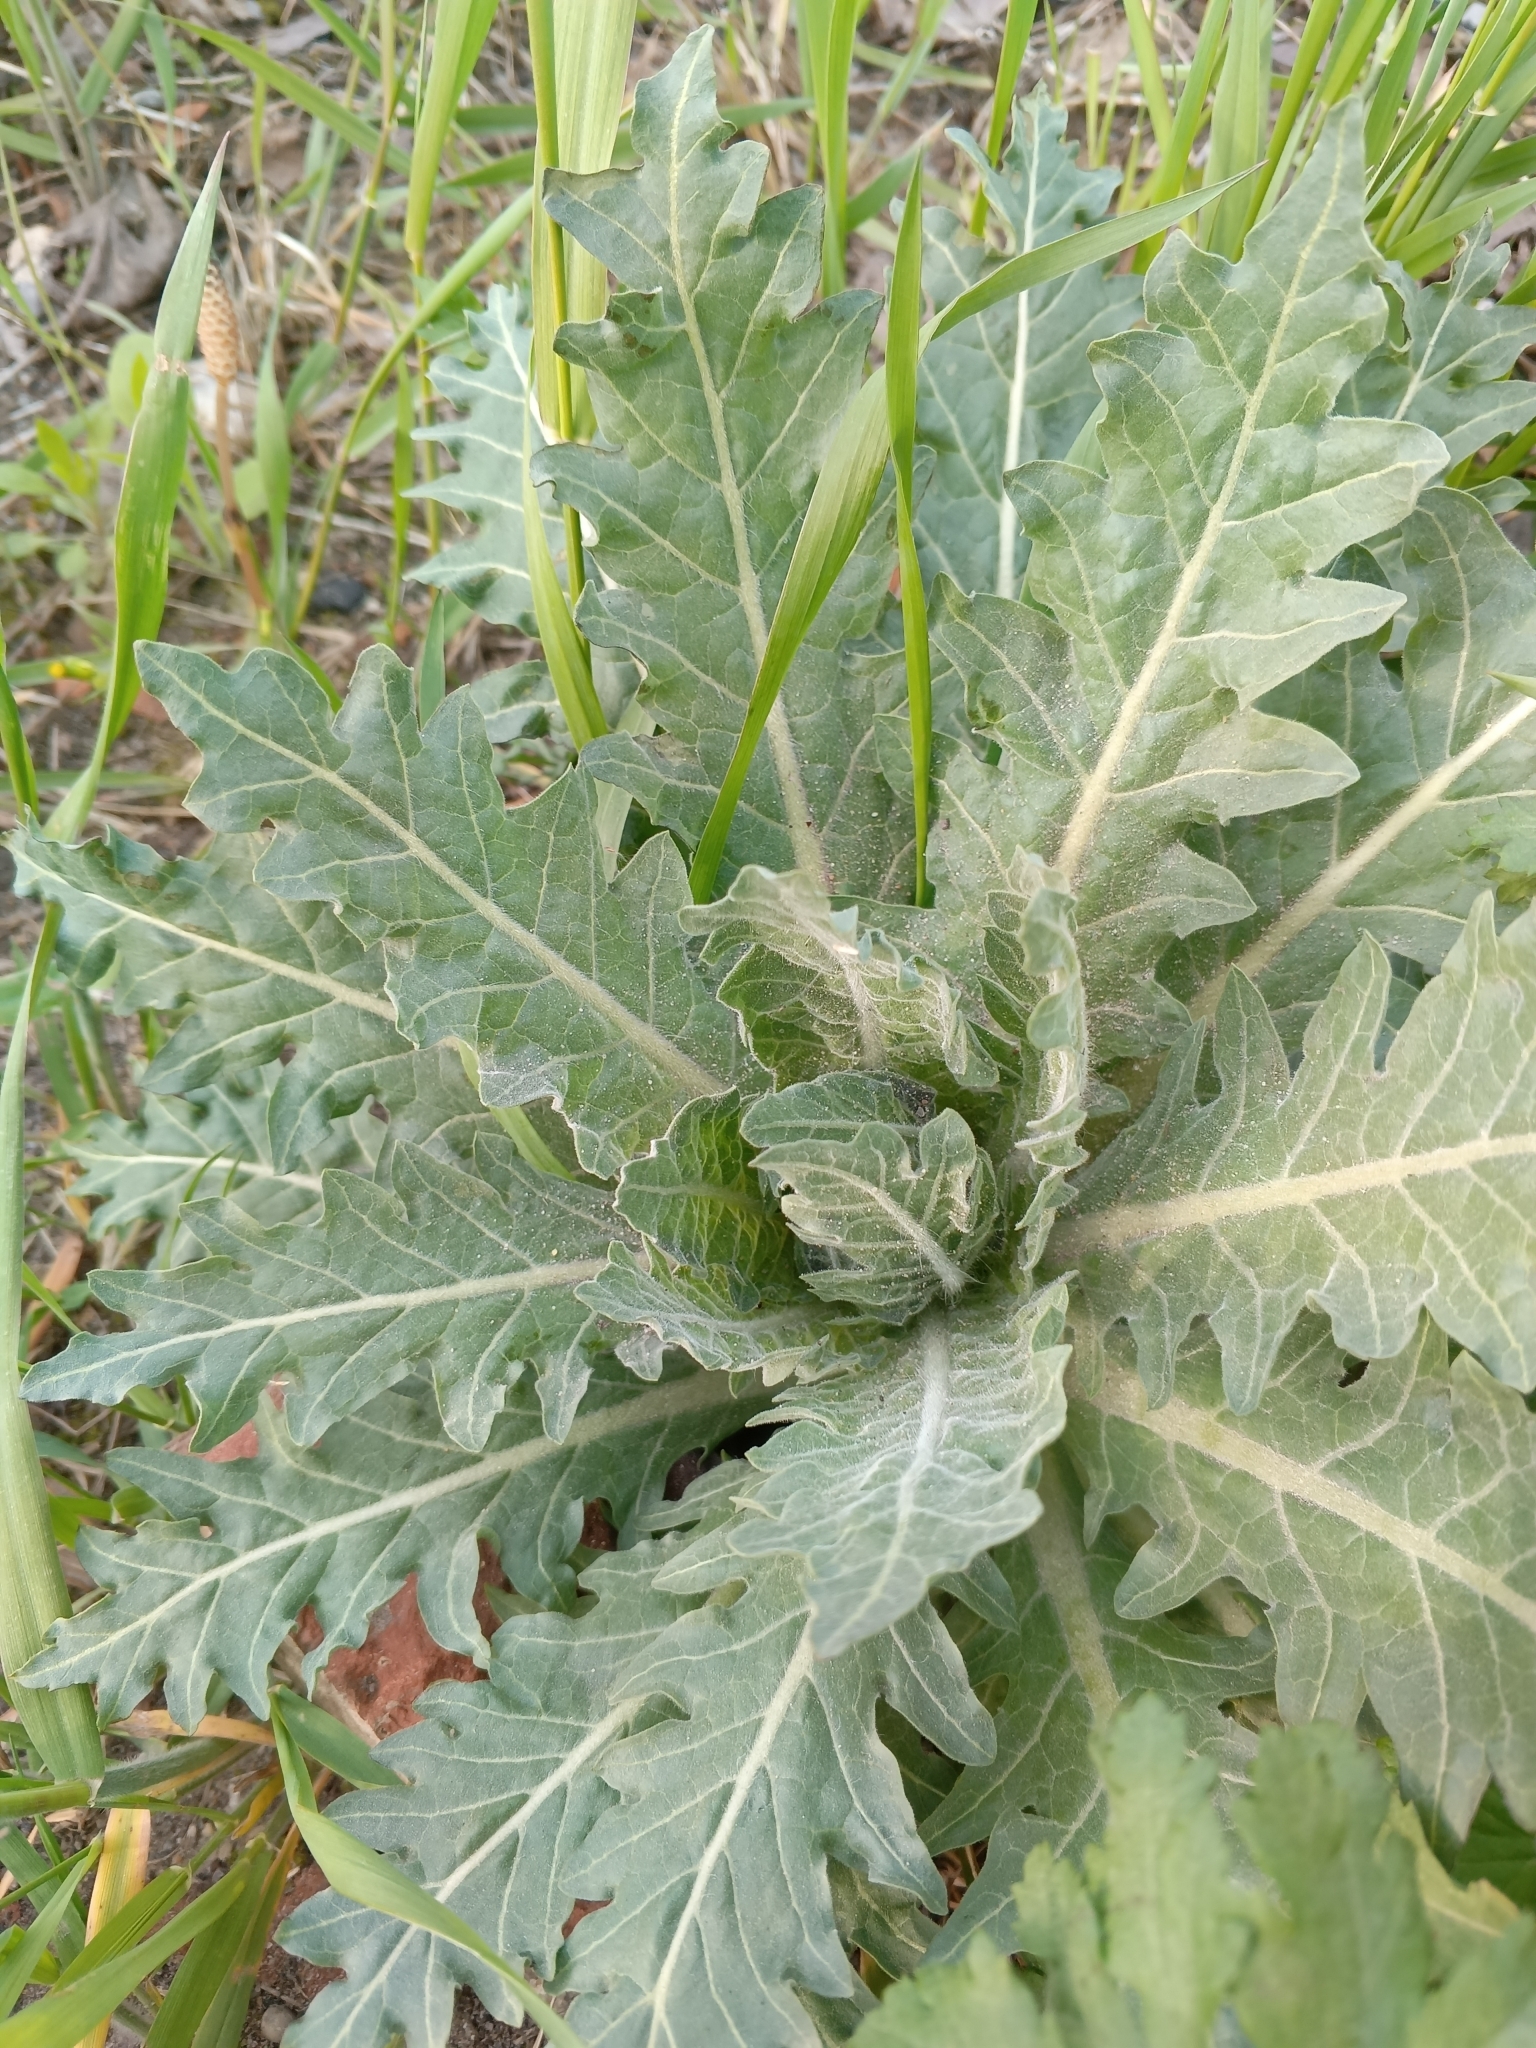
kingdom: Plantae
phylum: Tracheophyta
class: Magnoliopsida
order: Solanales
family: Solanaceae
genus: Hyoscyamus
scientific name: Hyoscyamus niger
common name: Henbane
